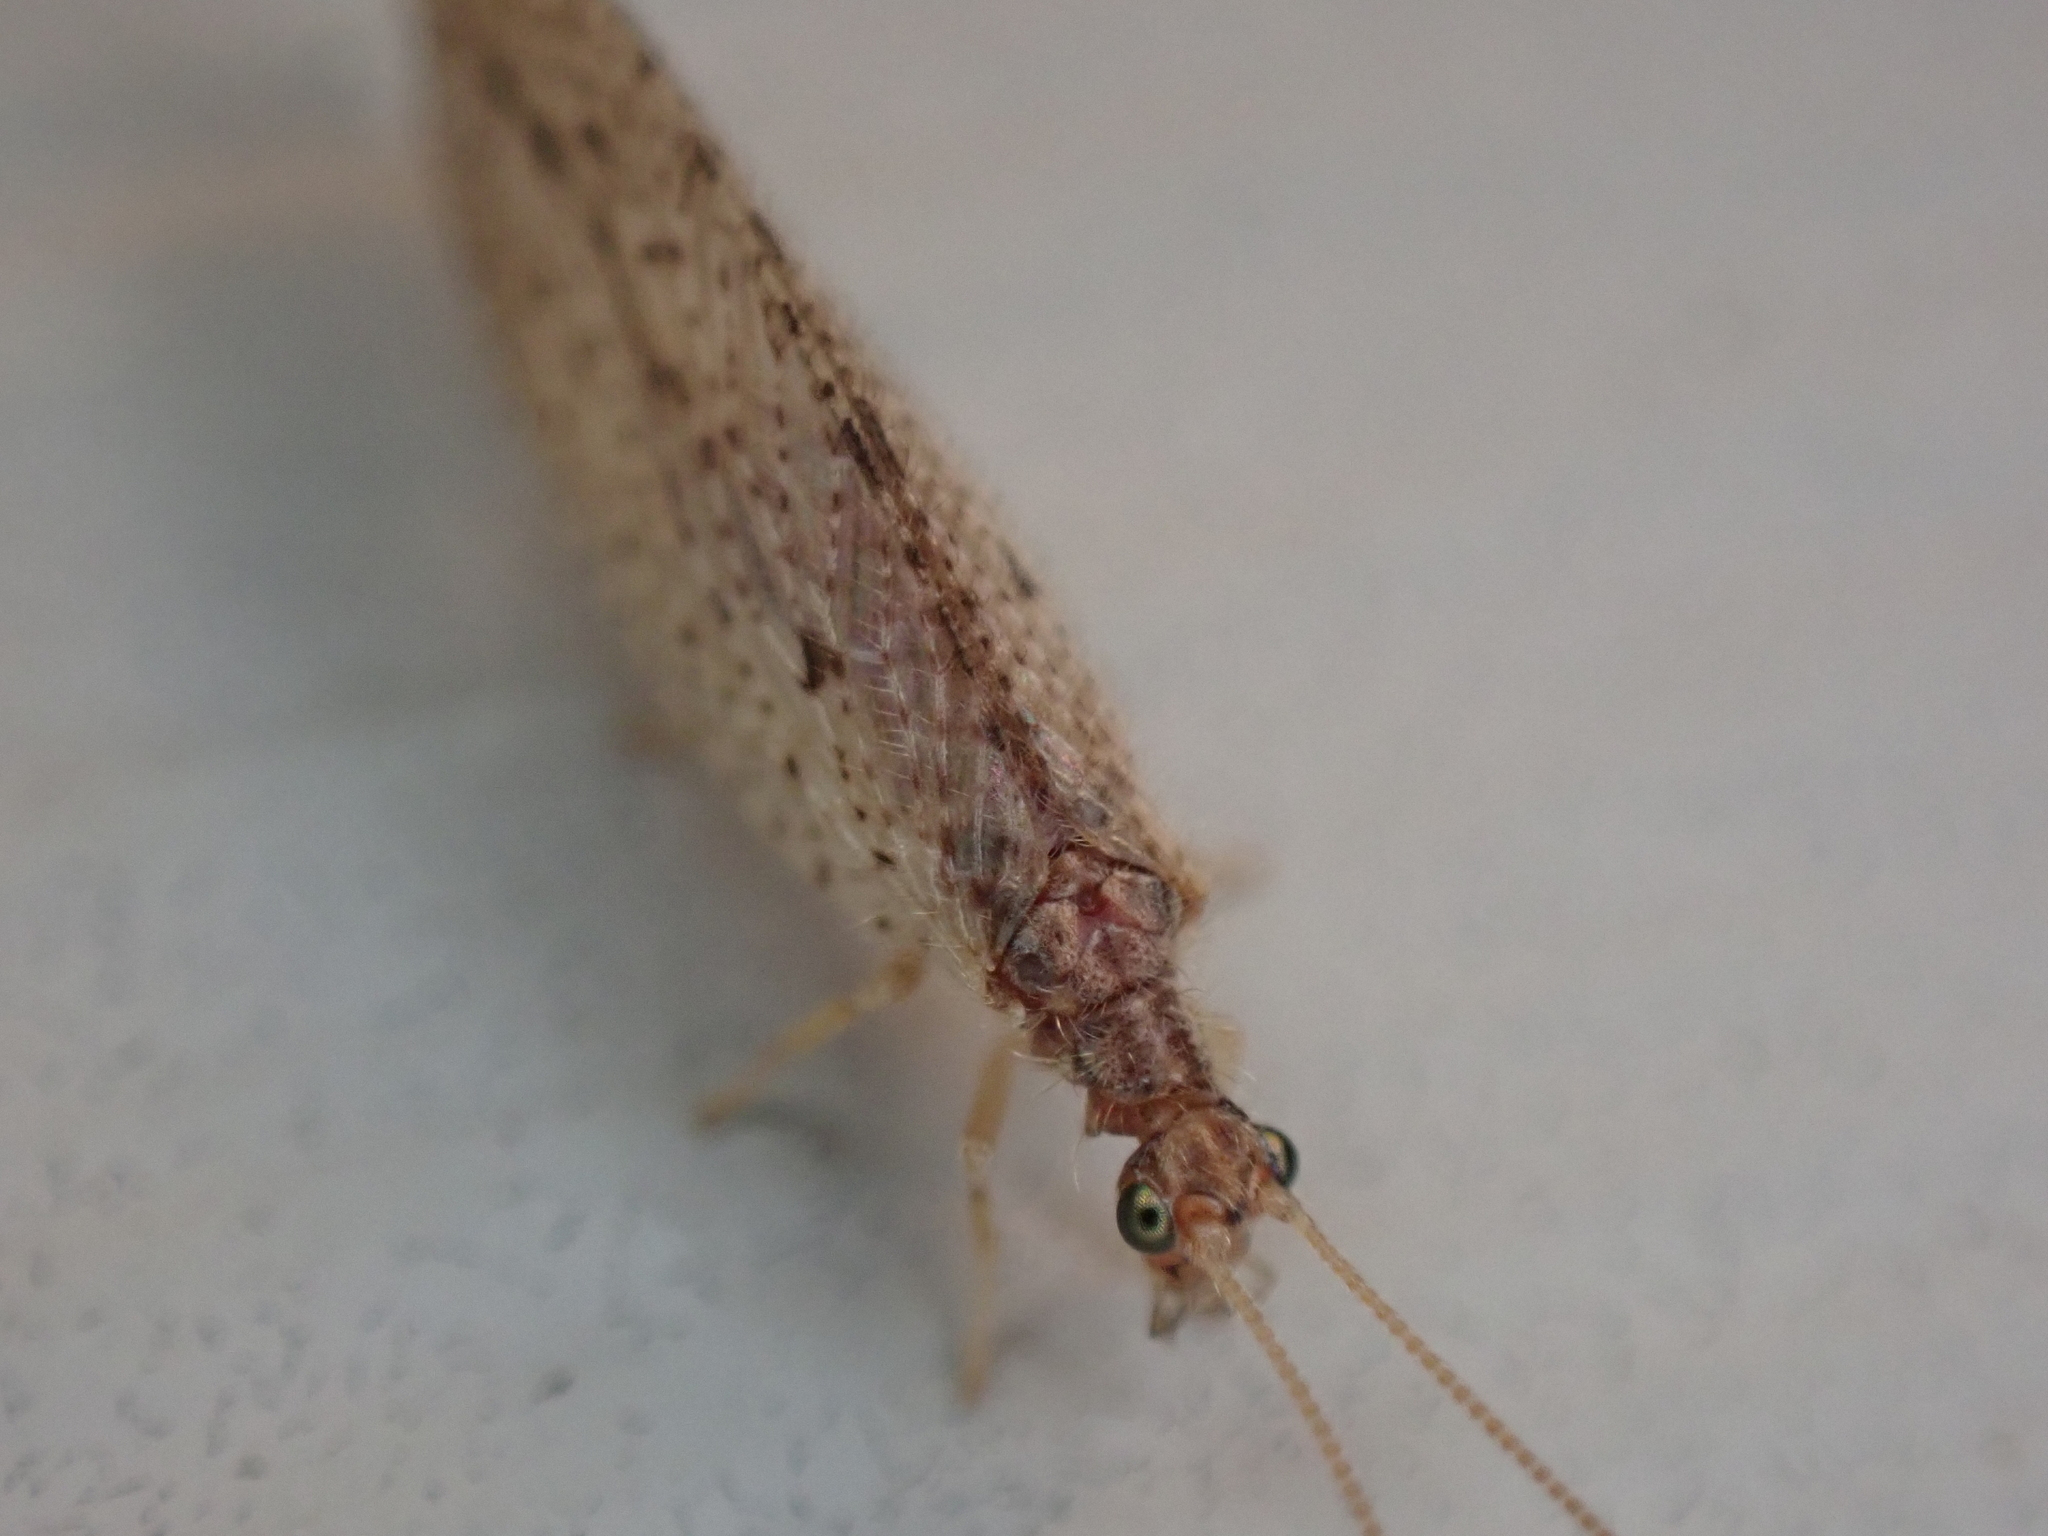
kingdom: Animalia
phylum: Arthropoda
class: Insecta
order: Neuroptera
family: Hemerobiidae
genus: Micromus
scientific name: Micromus subanticus
